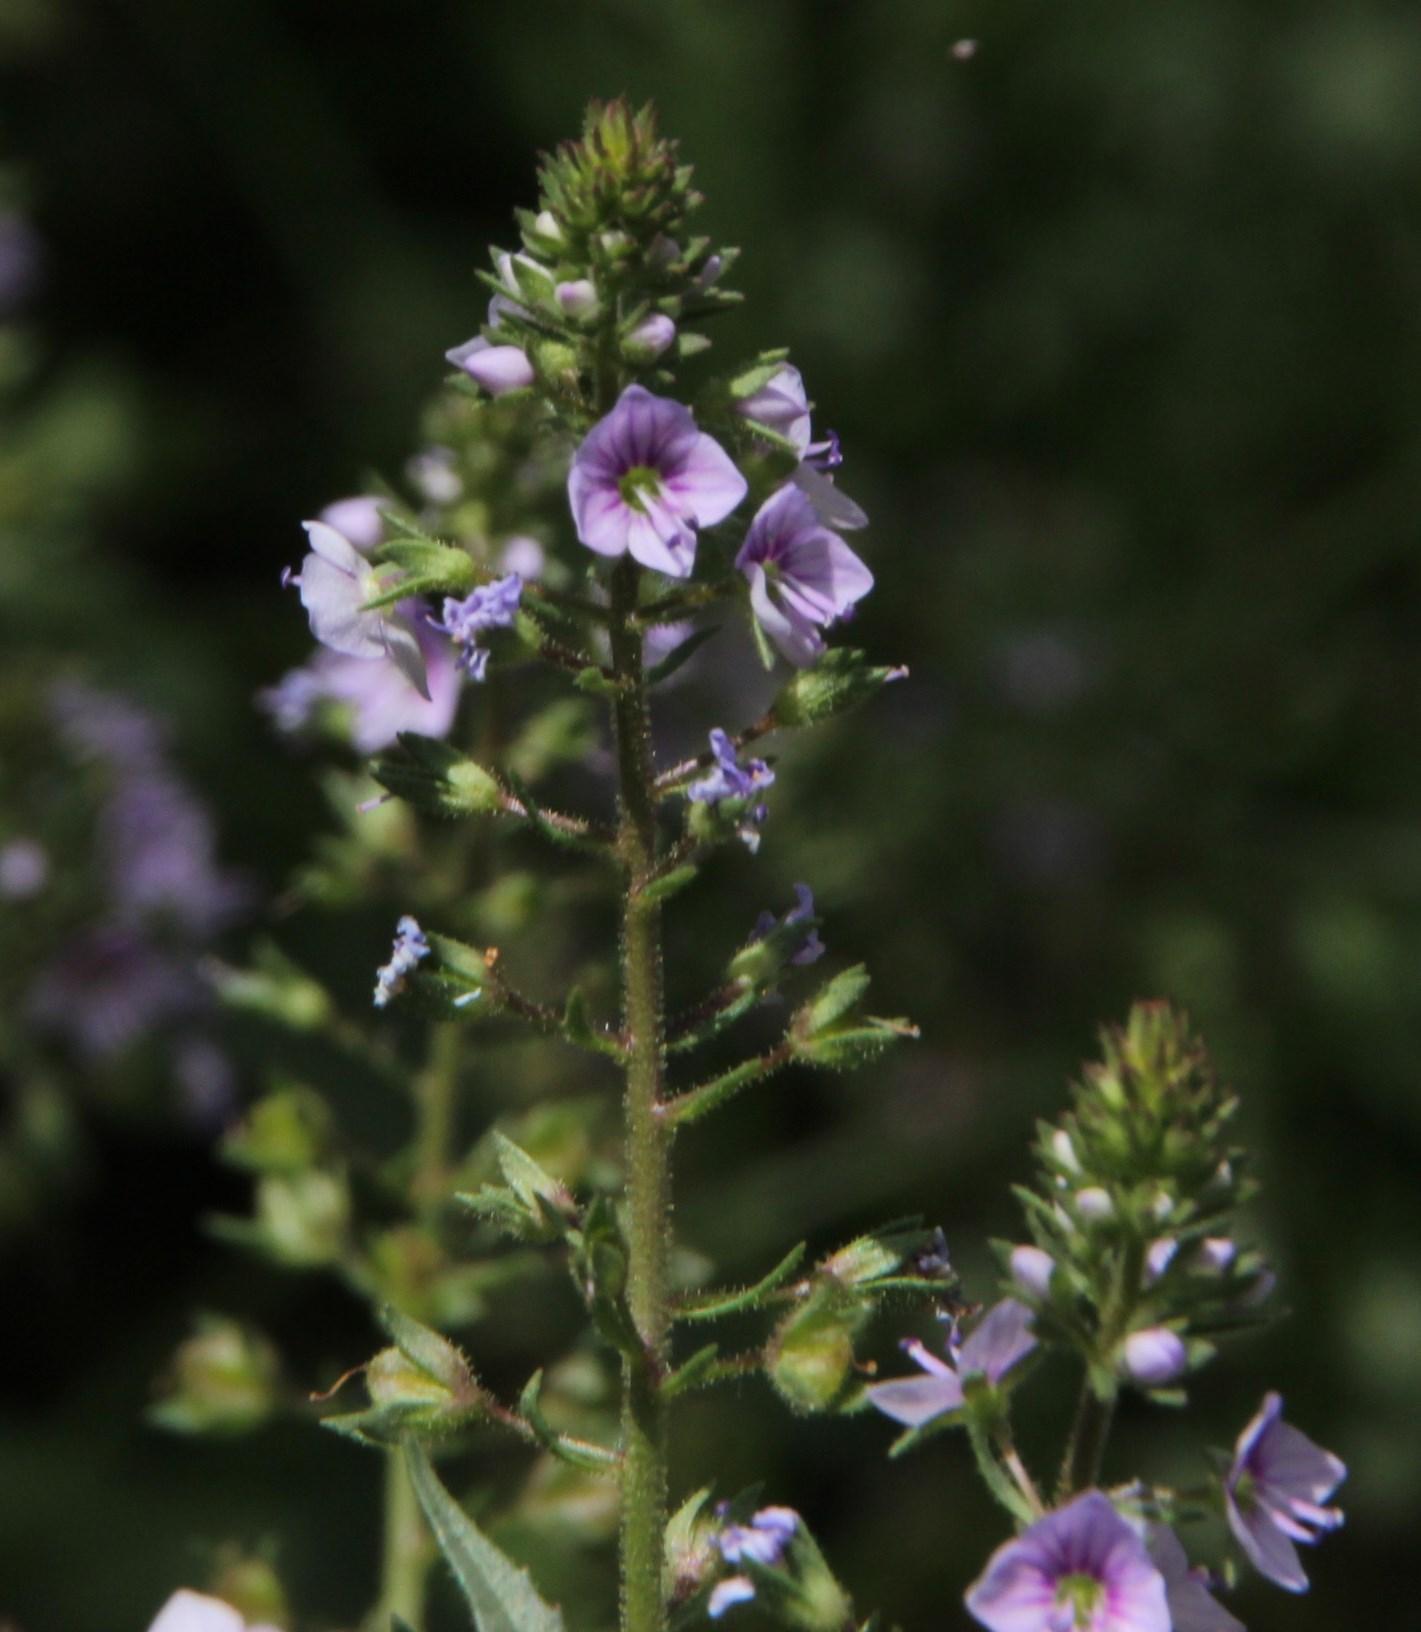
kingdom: Plantae
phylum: Tracheophyta
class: Magnoliopsida
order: Lamiales
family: Plantaginaceae
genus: Veronica
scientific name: Veronica anagallis-aquatica
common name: Water speedwell
